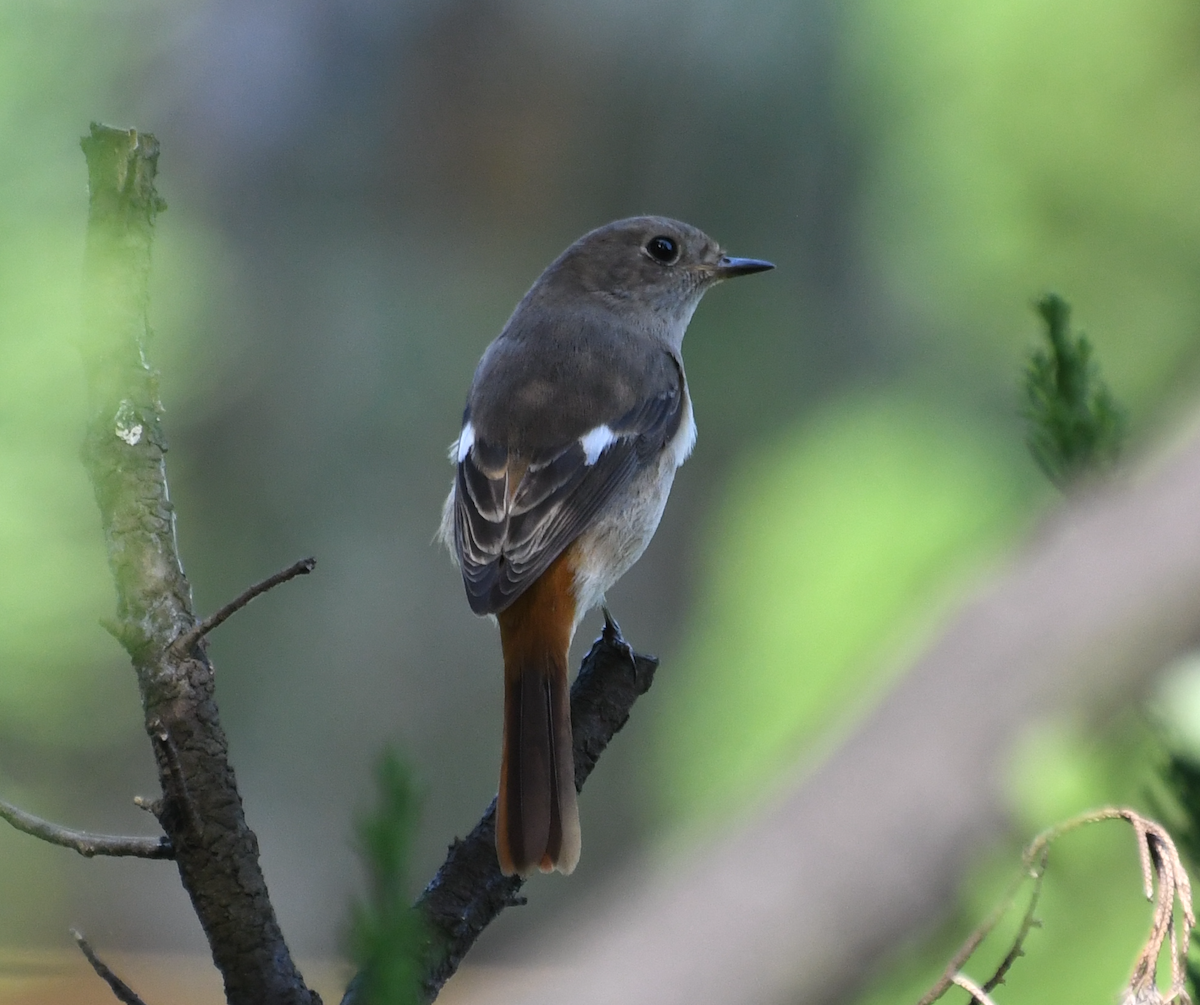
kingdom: Animalia
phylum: Chordata
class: Aves
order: Passeriformes
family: Muscicapidae
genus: Phoenicurus
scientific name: Phoenicurus auroreus
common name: Daurian redstart
